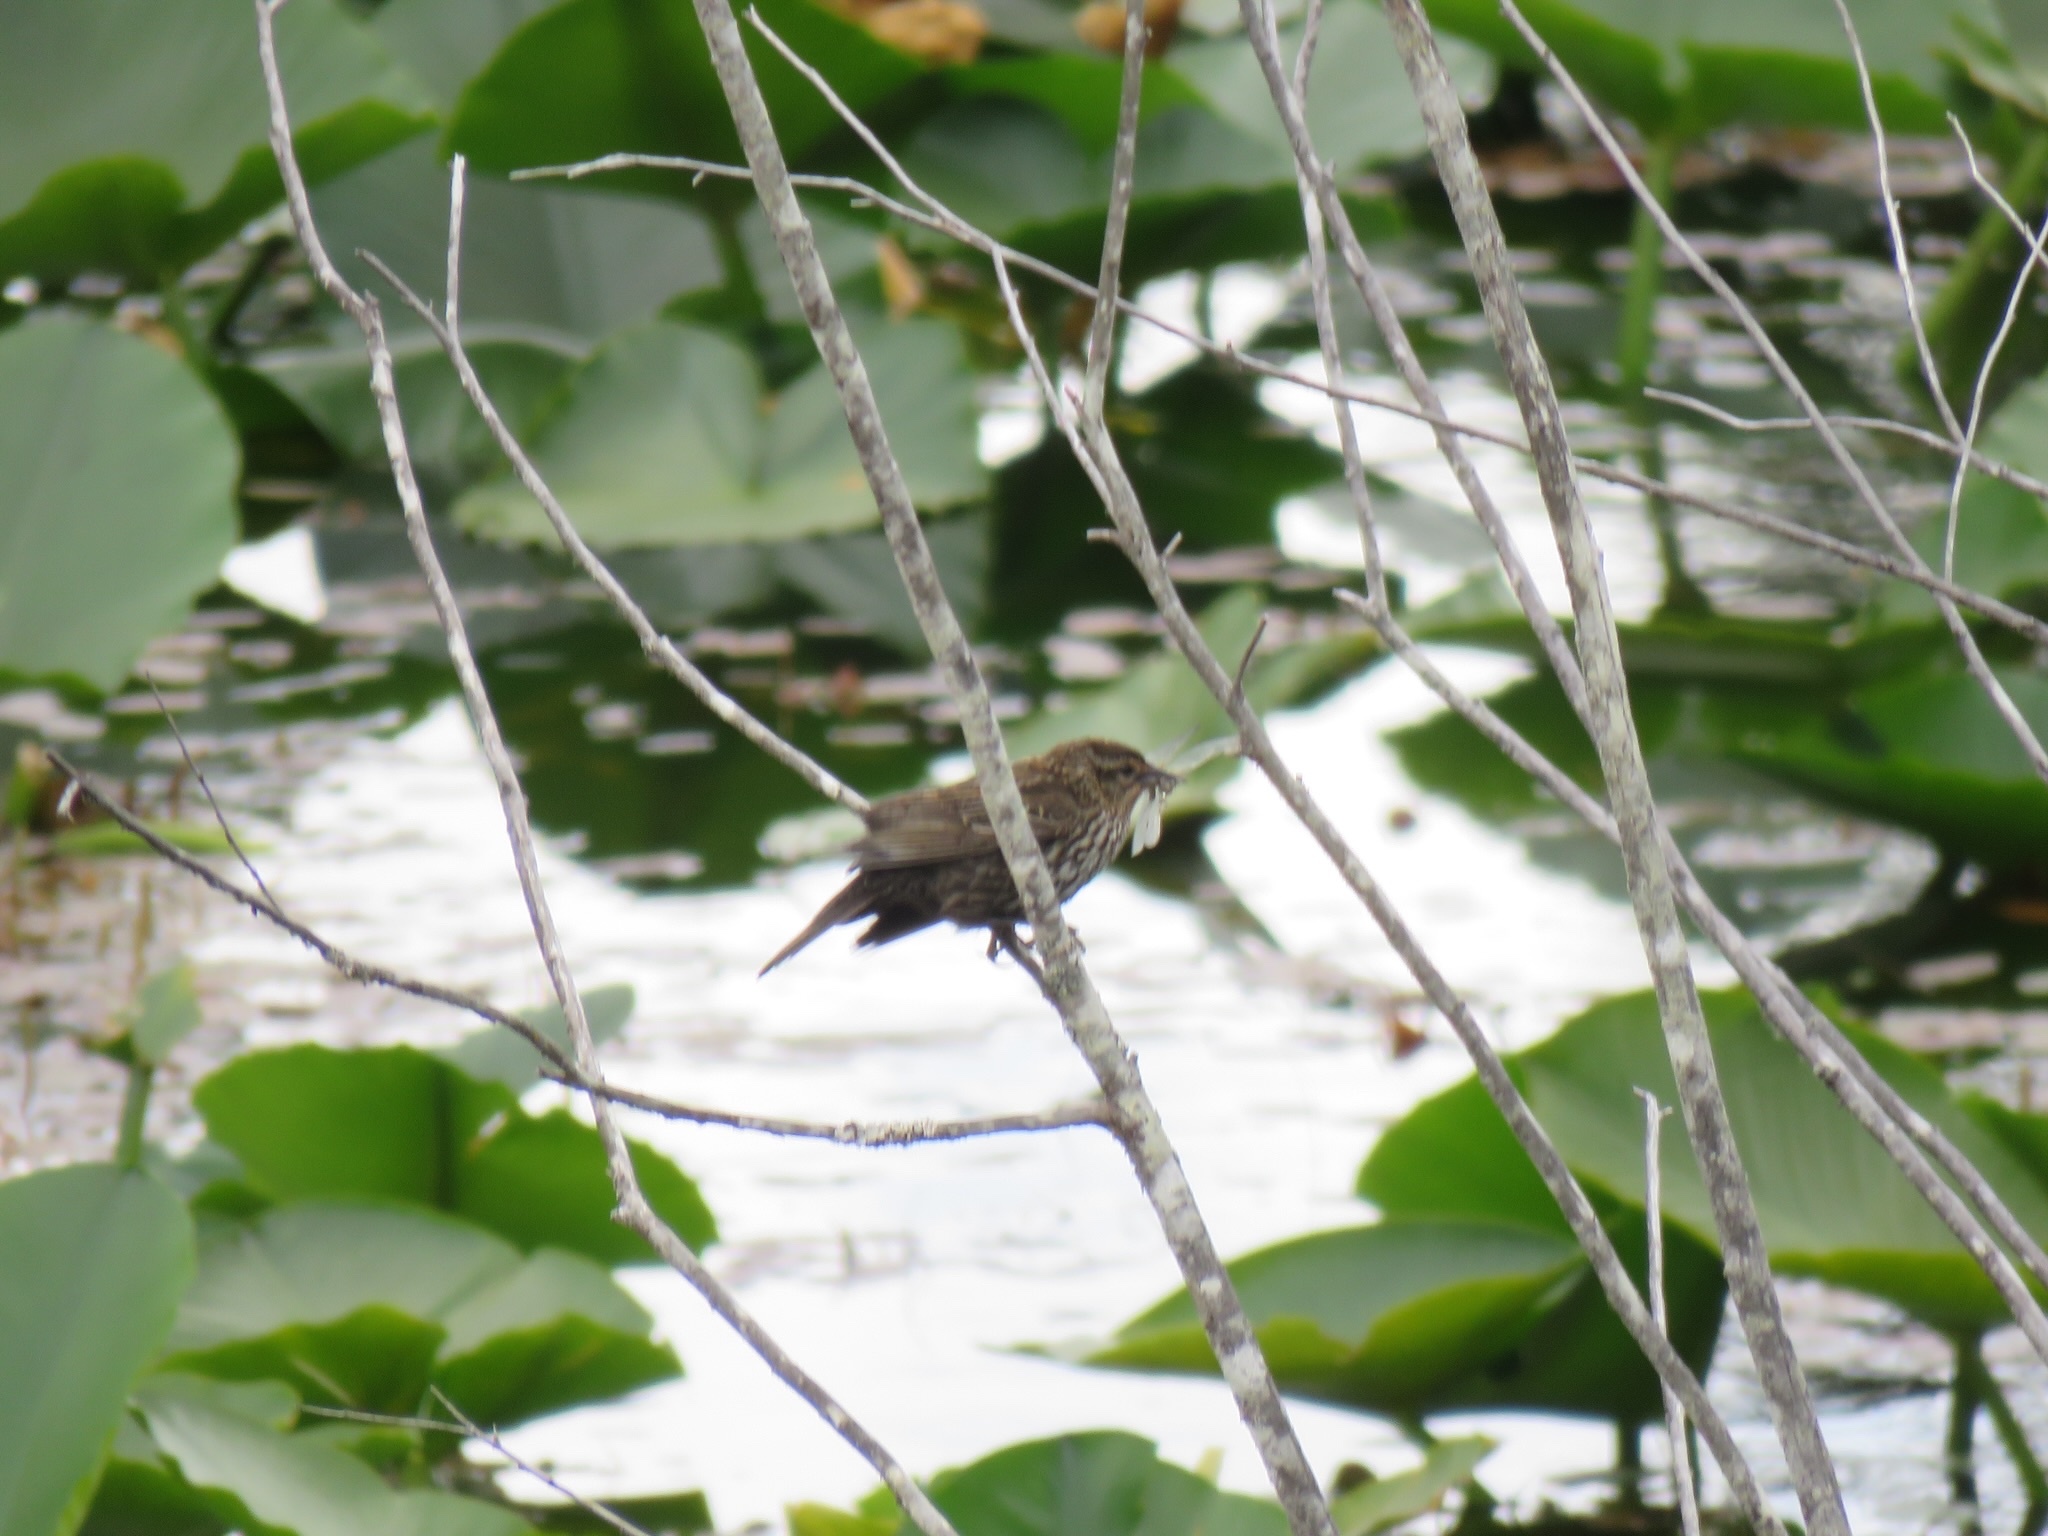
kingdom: Animalia
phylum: Chordata
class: Aves
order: Passeriformes
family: Icteridae
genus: Agelaius
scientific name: Agelaius phoeniceus
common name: Red-winged blackbird
